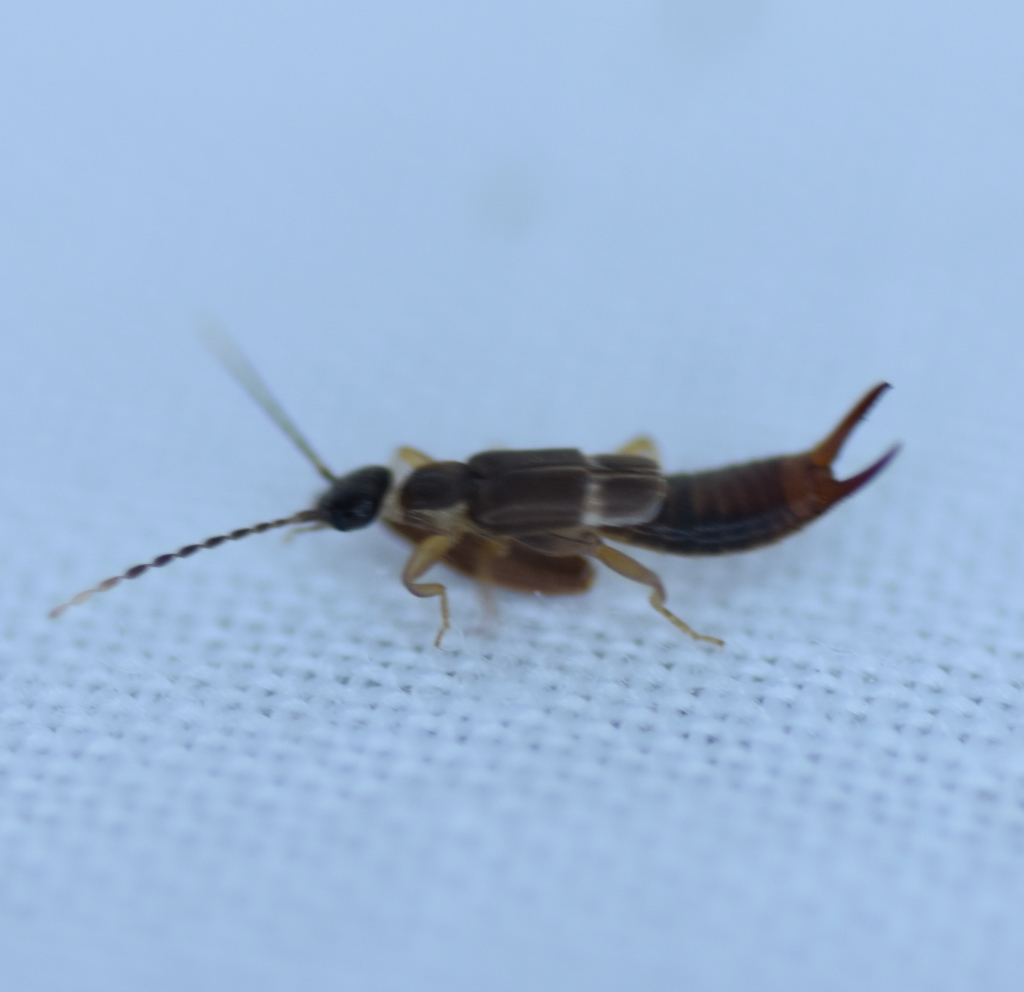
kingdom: Animalia
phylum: Arthropoda
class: Insecta
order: Dermaptera
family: Spongiphoridae
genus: Labia
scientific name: Labia minor
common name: Lesser earwig
